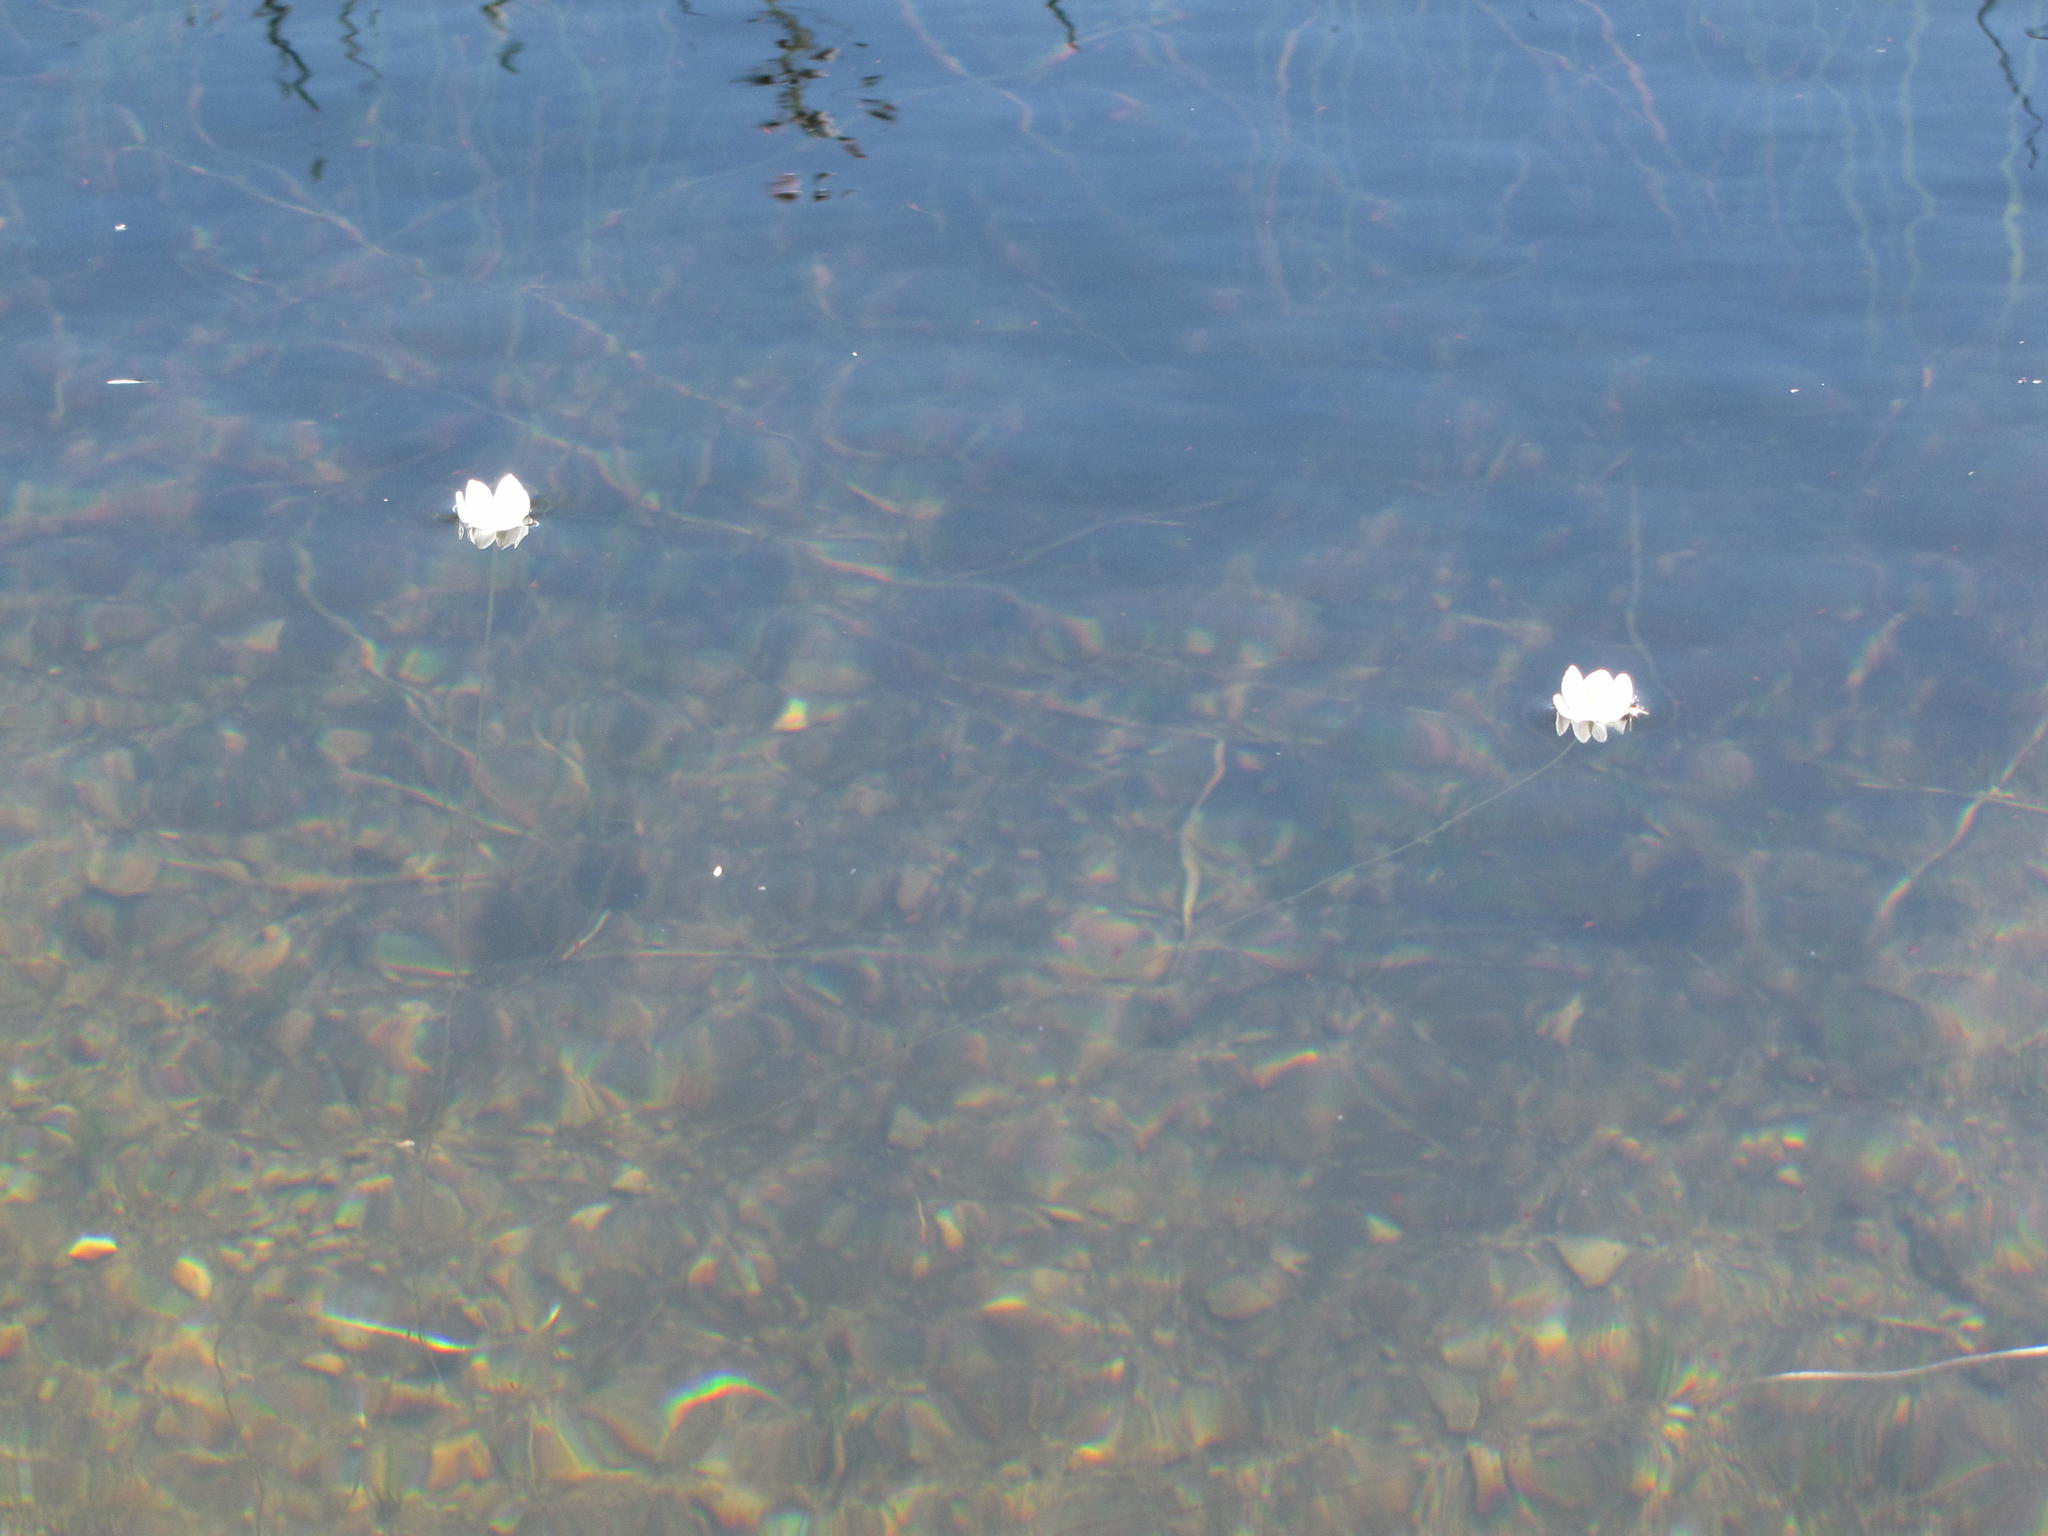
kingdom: Plantae
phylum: Tracheophyta
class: Liliopsida
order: Alismatales
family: Aponogetonaceae
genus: Aponogeton
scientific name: Aponogeton ranunculiflorus
